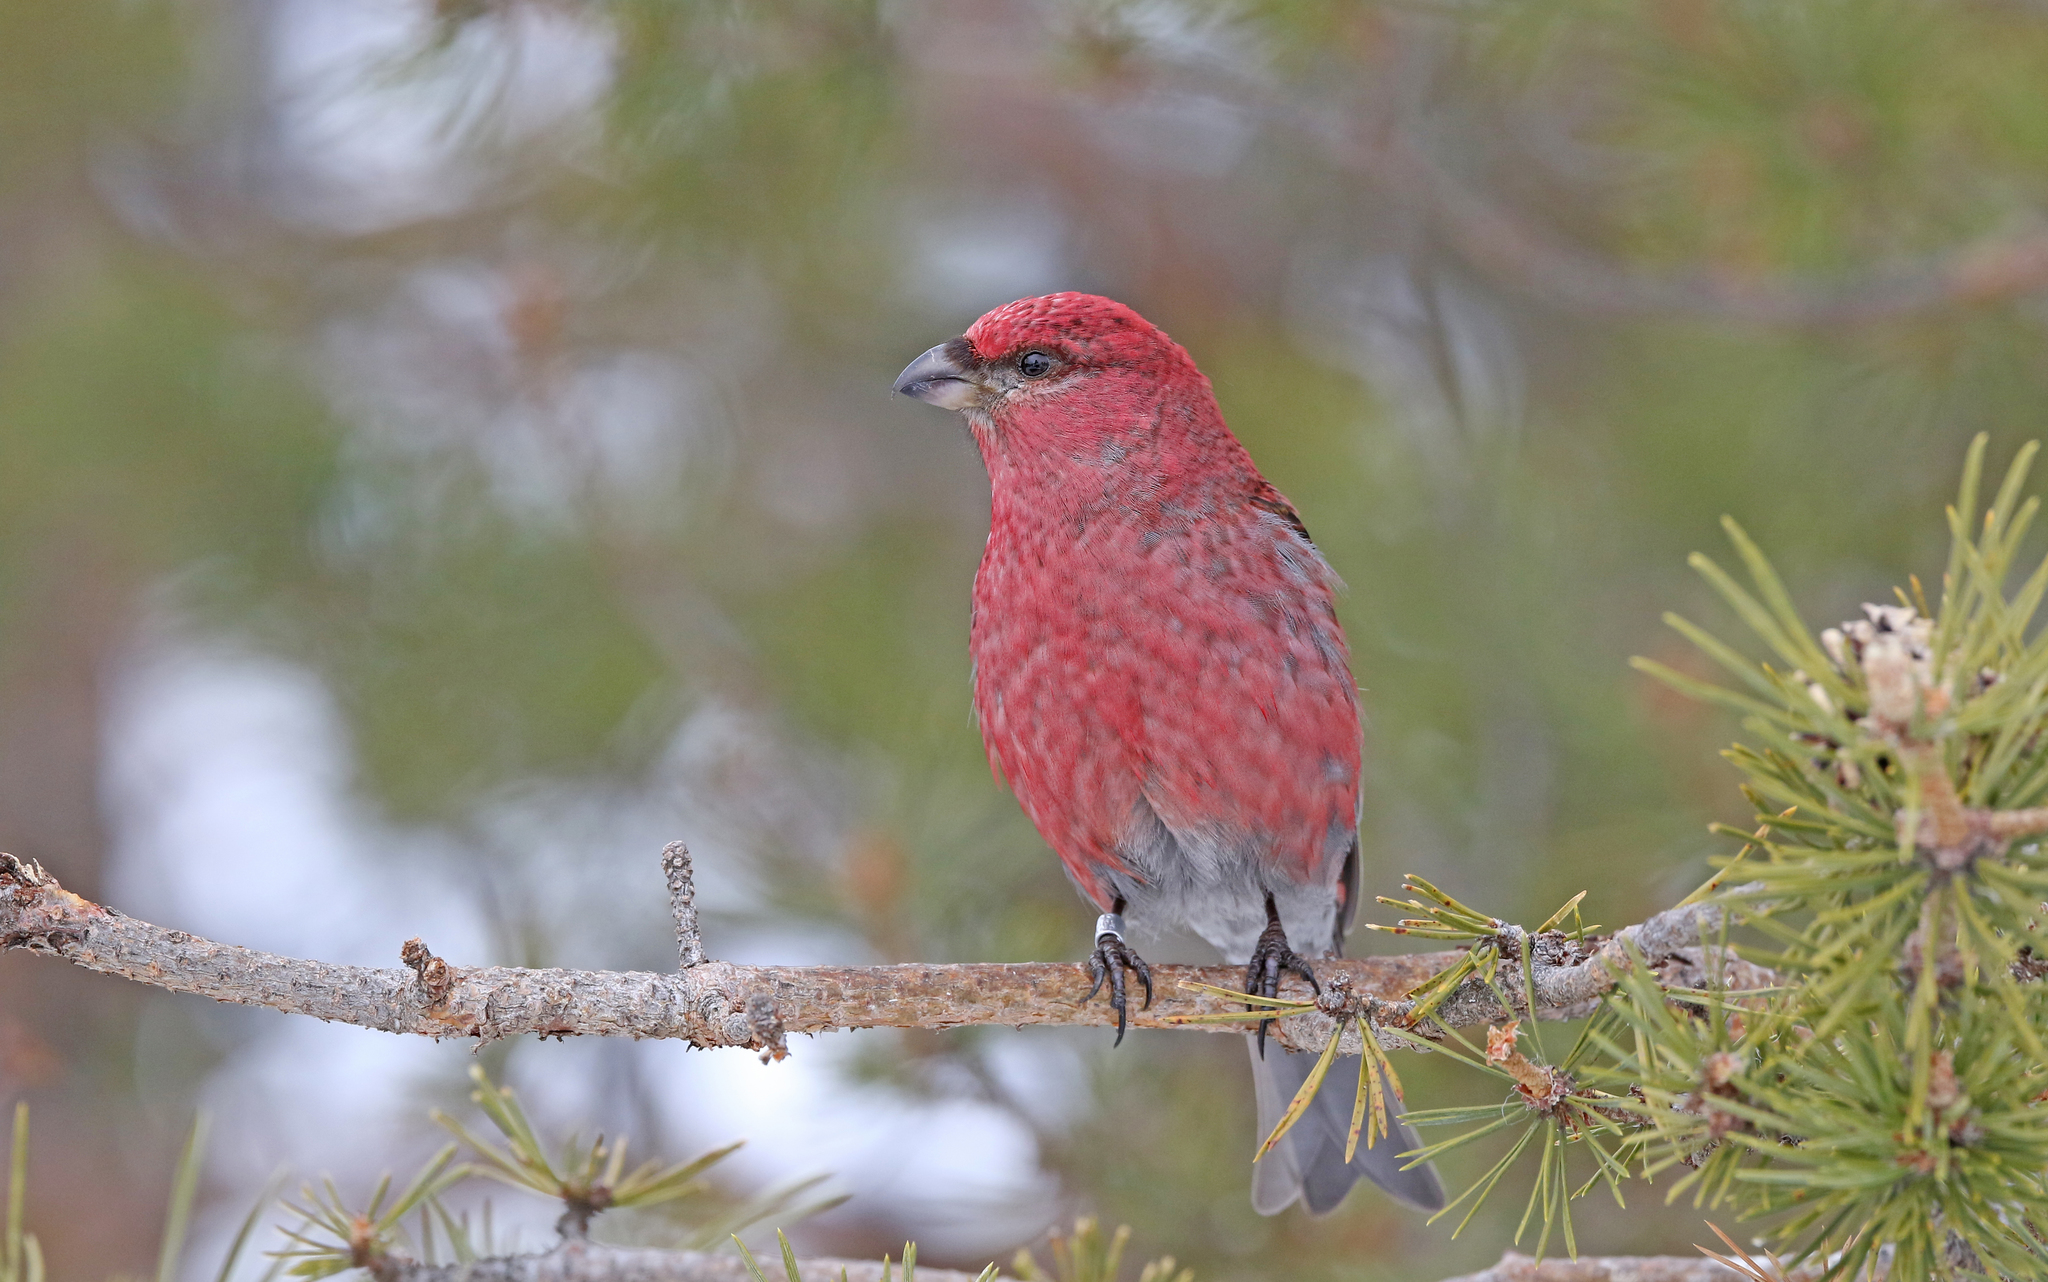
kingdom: Animalia
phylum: Chordata
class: Aves
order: Passeriformes
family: Fringillidae
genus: Pinicola
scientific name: Pinicola enucleator
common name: Pine grosbeak
